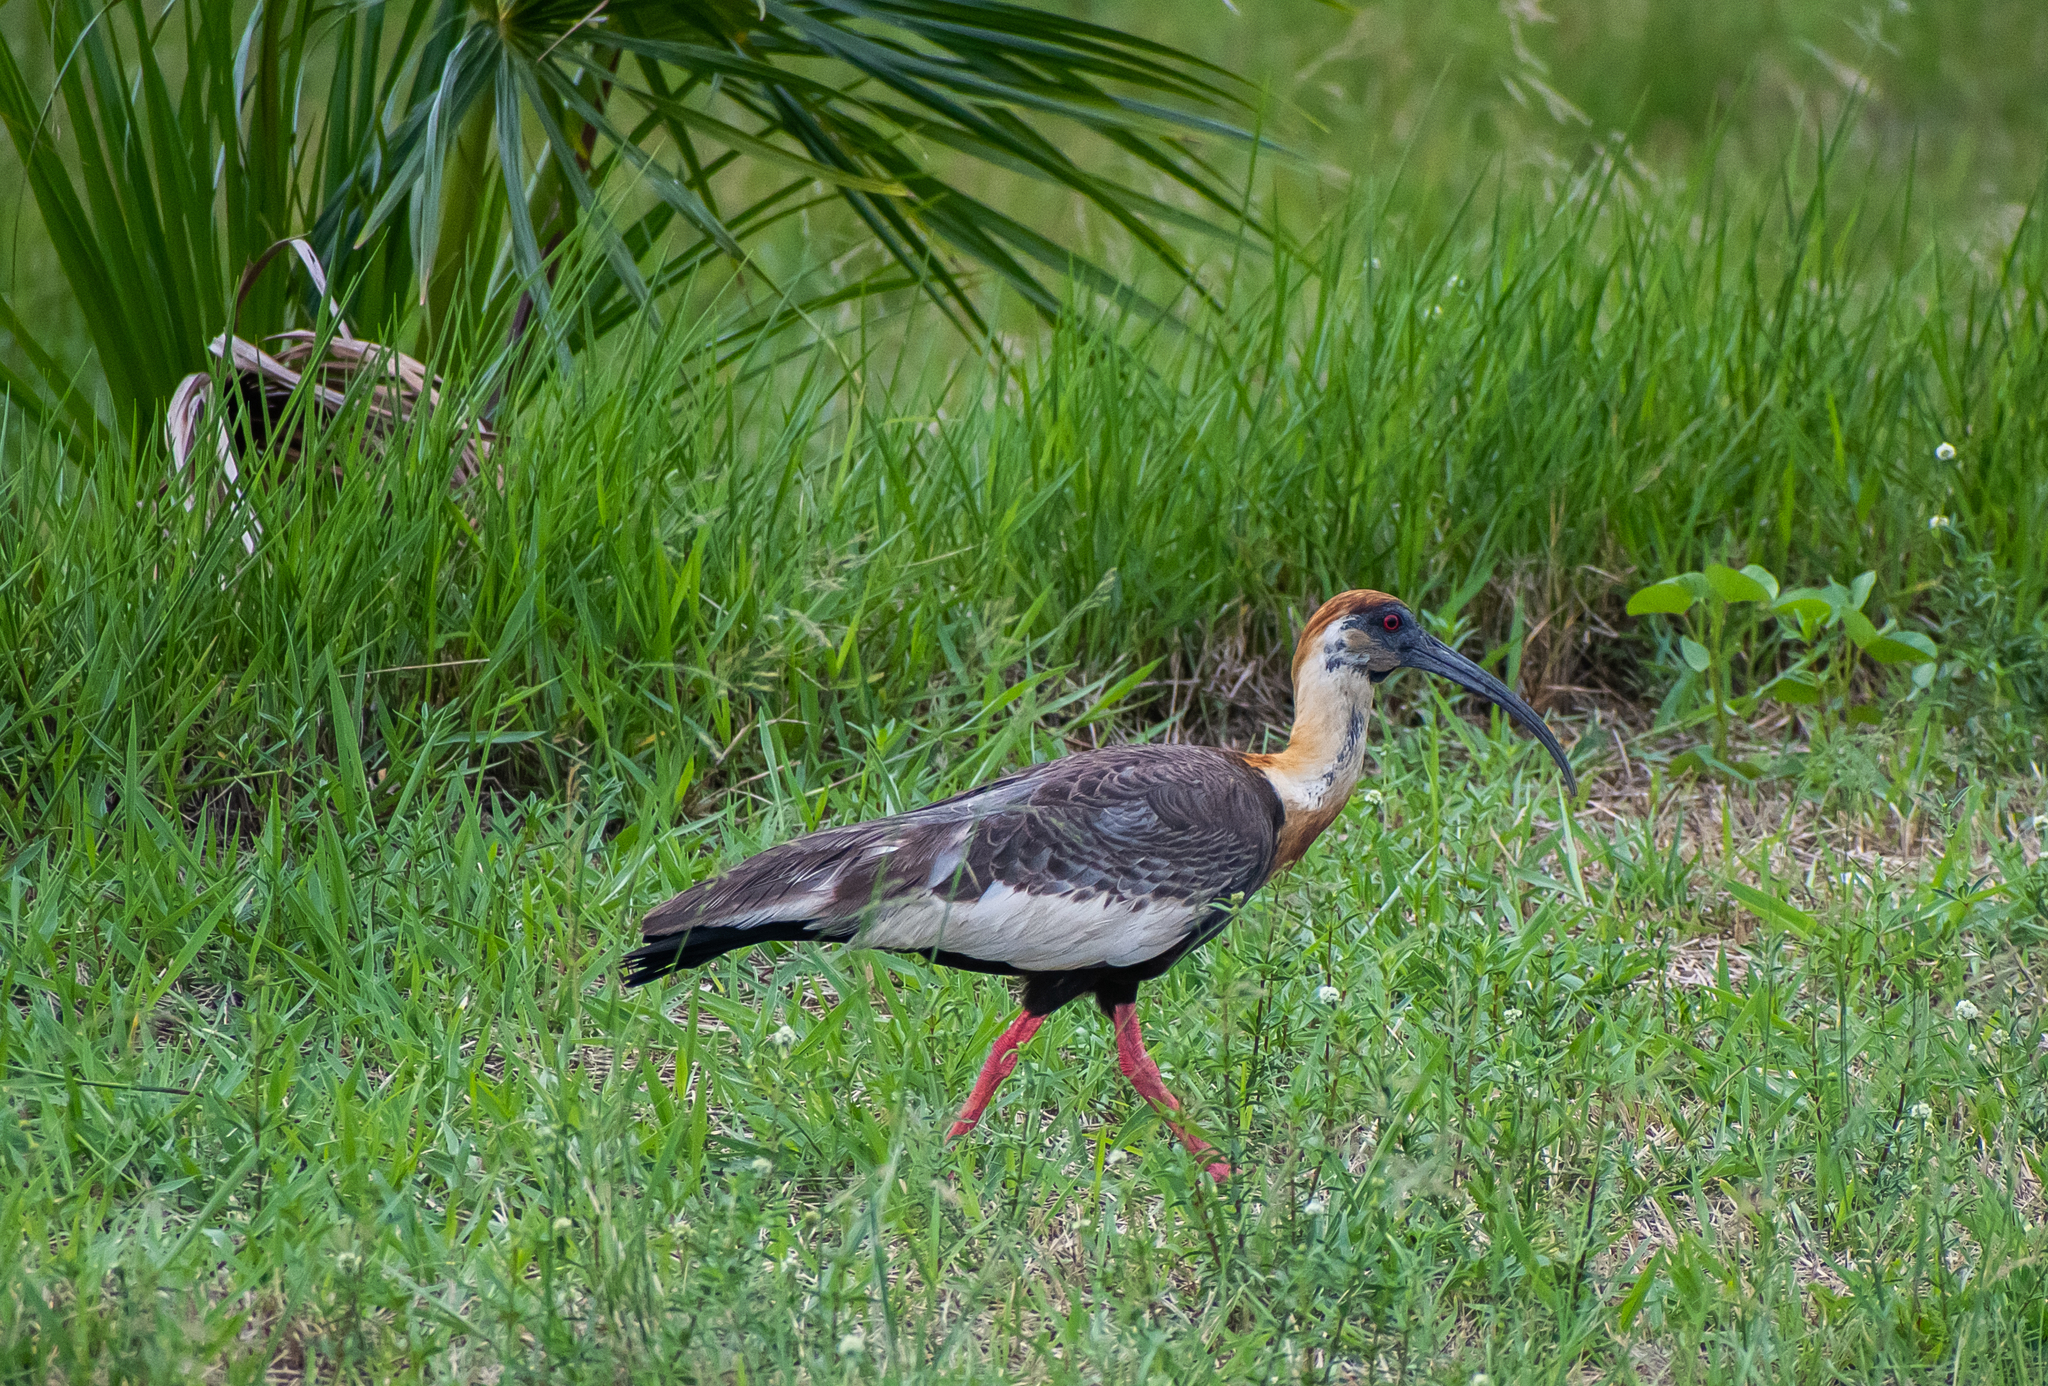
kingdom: Animalia
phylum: Chordata
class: Aves
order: Pelecaniformes
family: Threskiornithidae
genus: Theristicus
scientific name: Theristicus caudatus
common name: Buff-necked ibis
